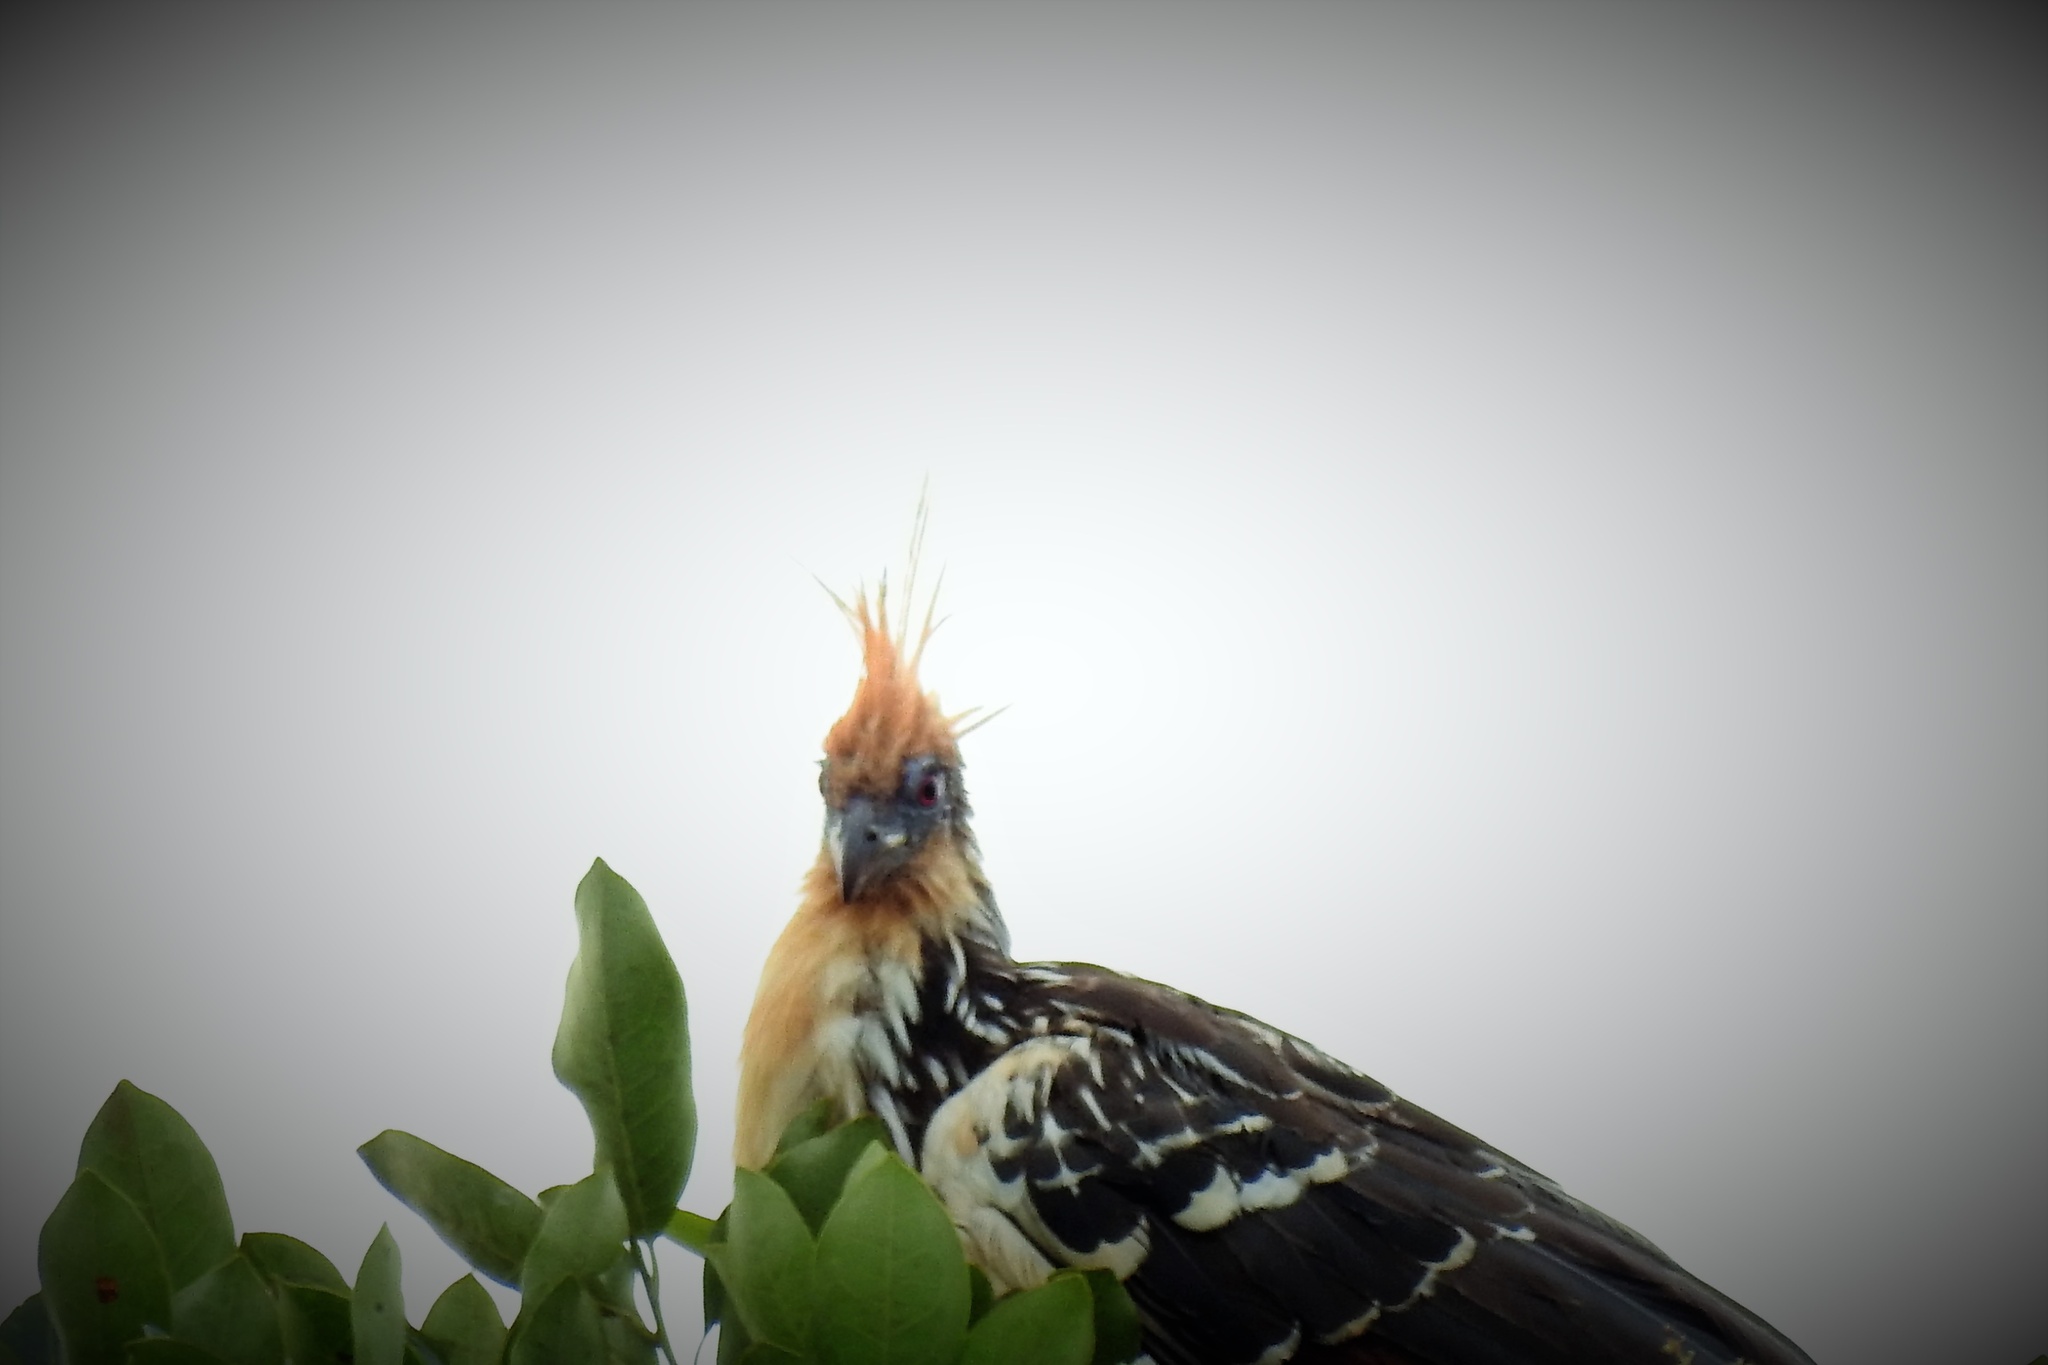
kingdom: Animalia
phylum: Chordata
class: Aves
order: Opisthocomiformes
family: Opisthocomidae
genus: Opisthocomus
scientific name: Opisthocomus hoazin
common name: Hoatzin
